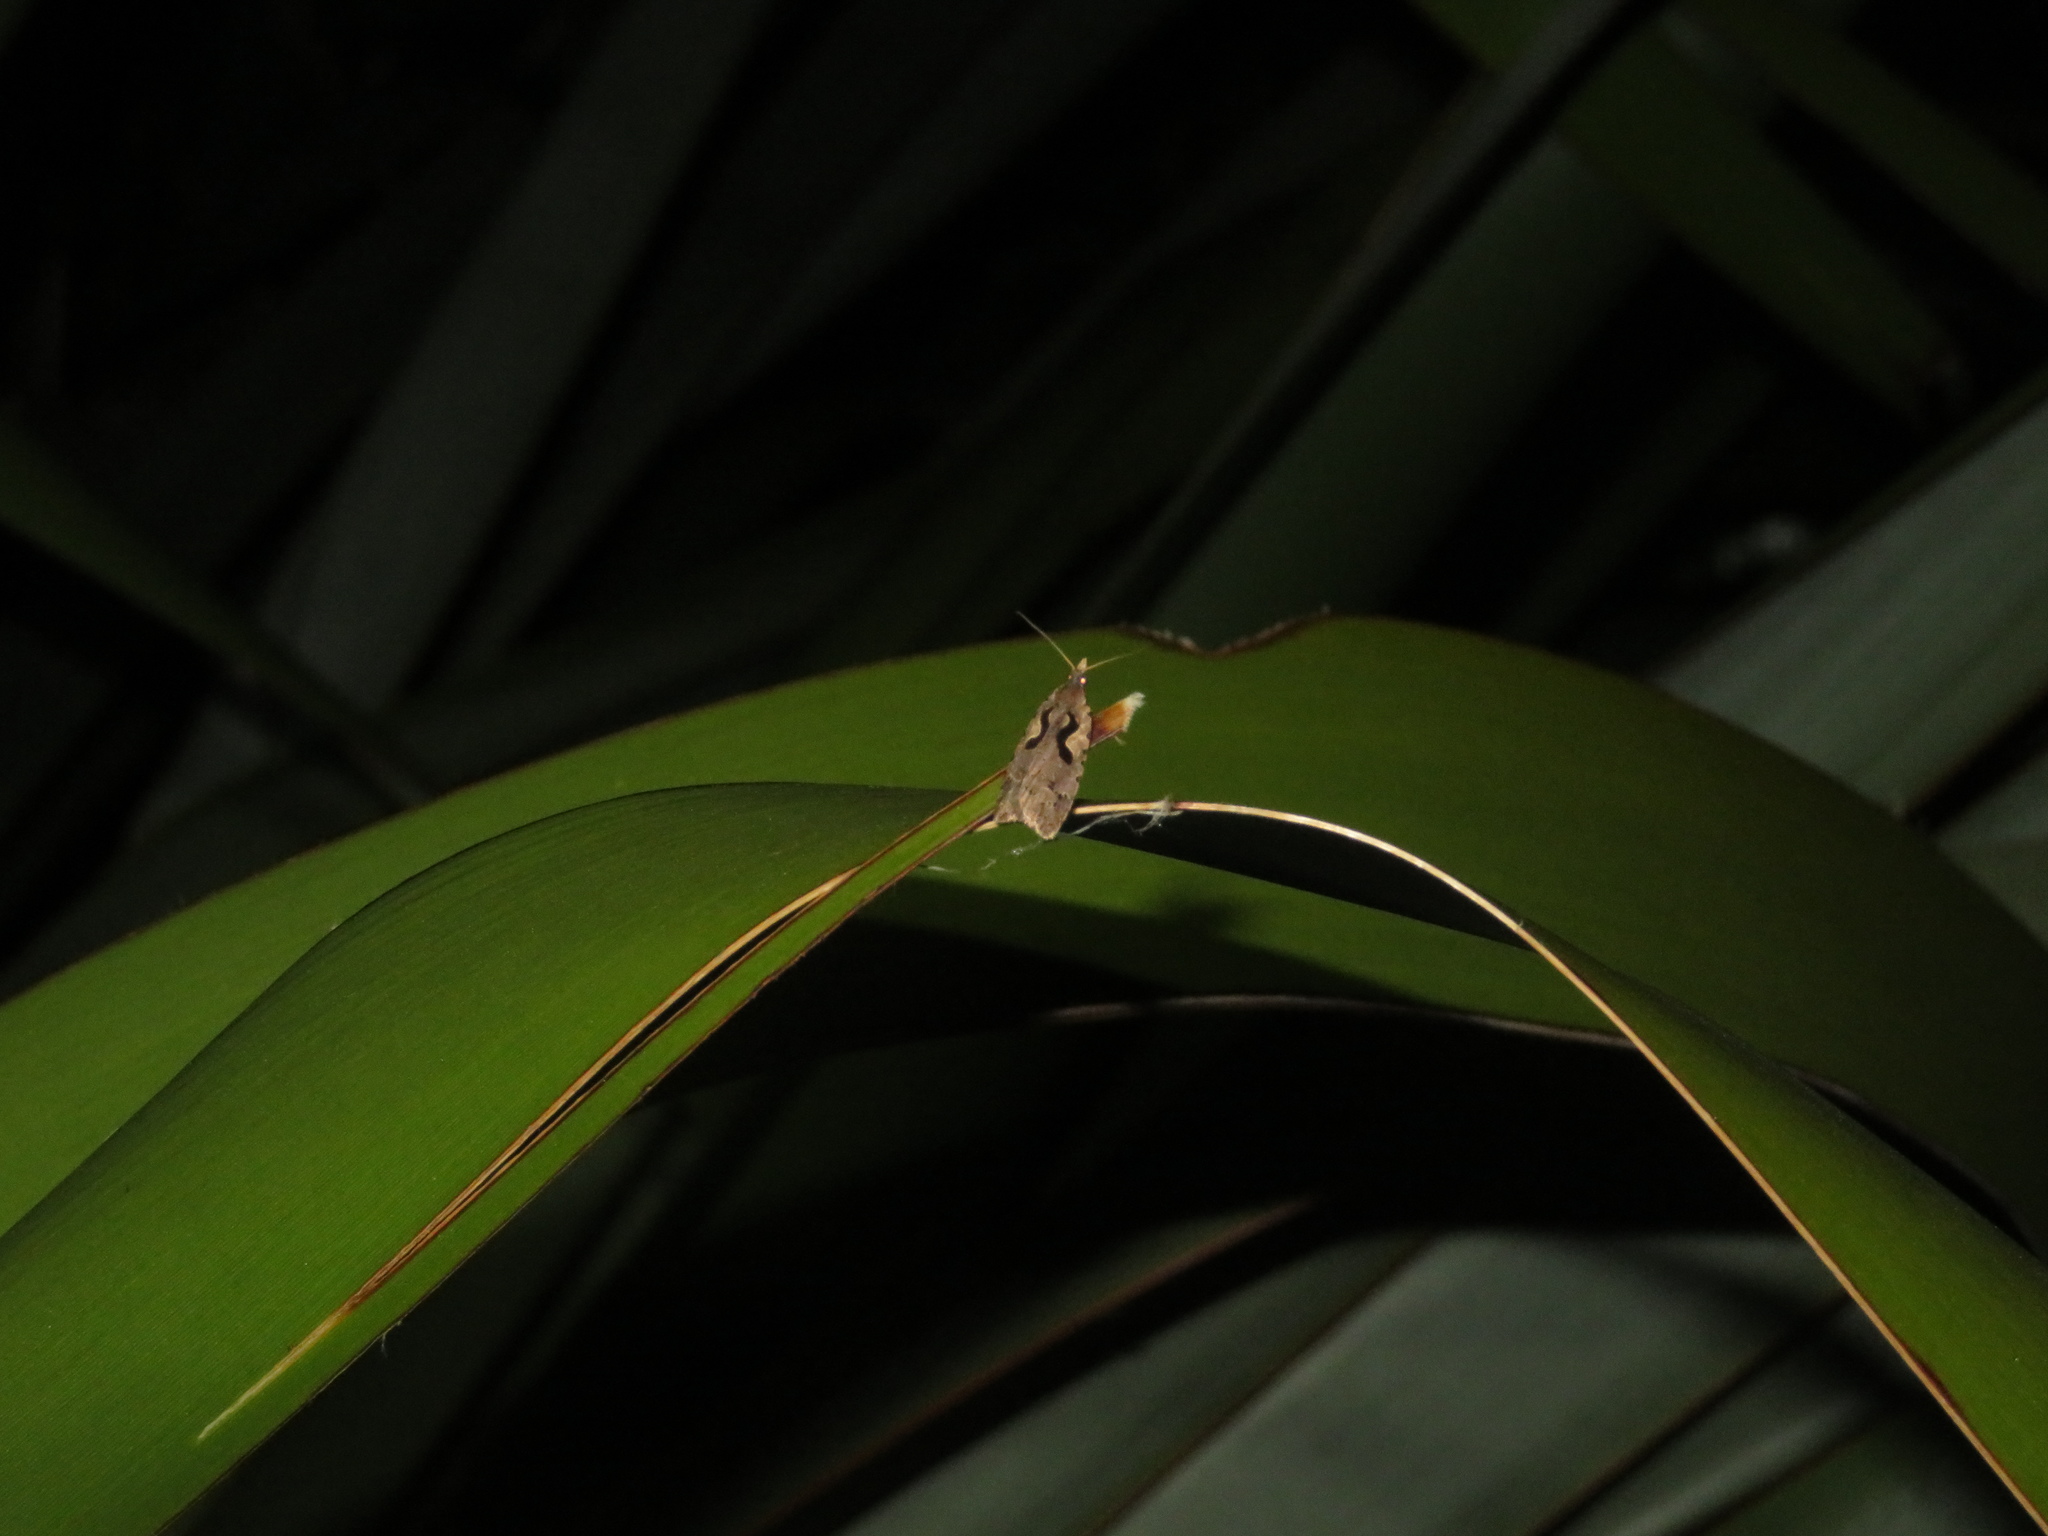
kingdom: Animalia
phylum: Arthropoda
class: Insecta
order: Lepidoptera
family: Tortricidae
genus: Cnephasia
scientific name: Cnephasia jactatana
